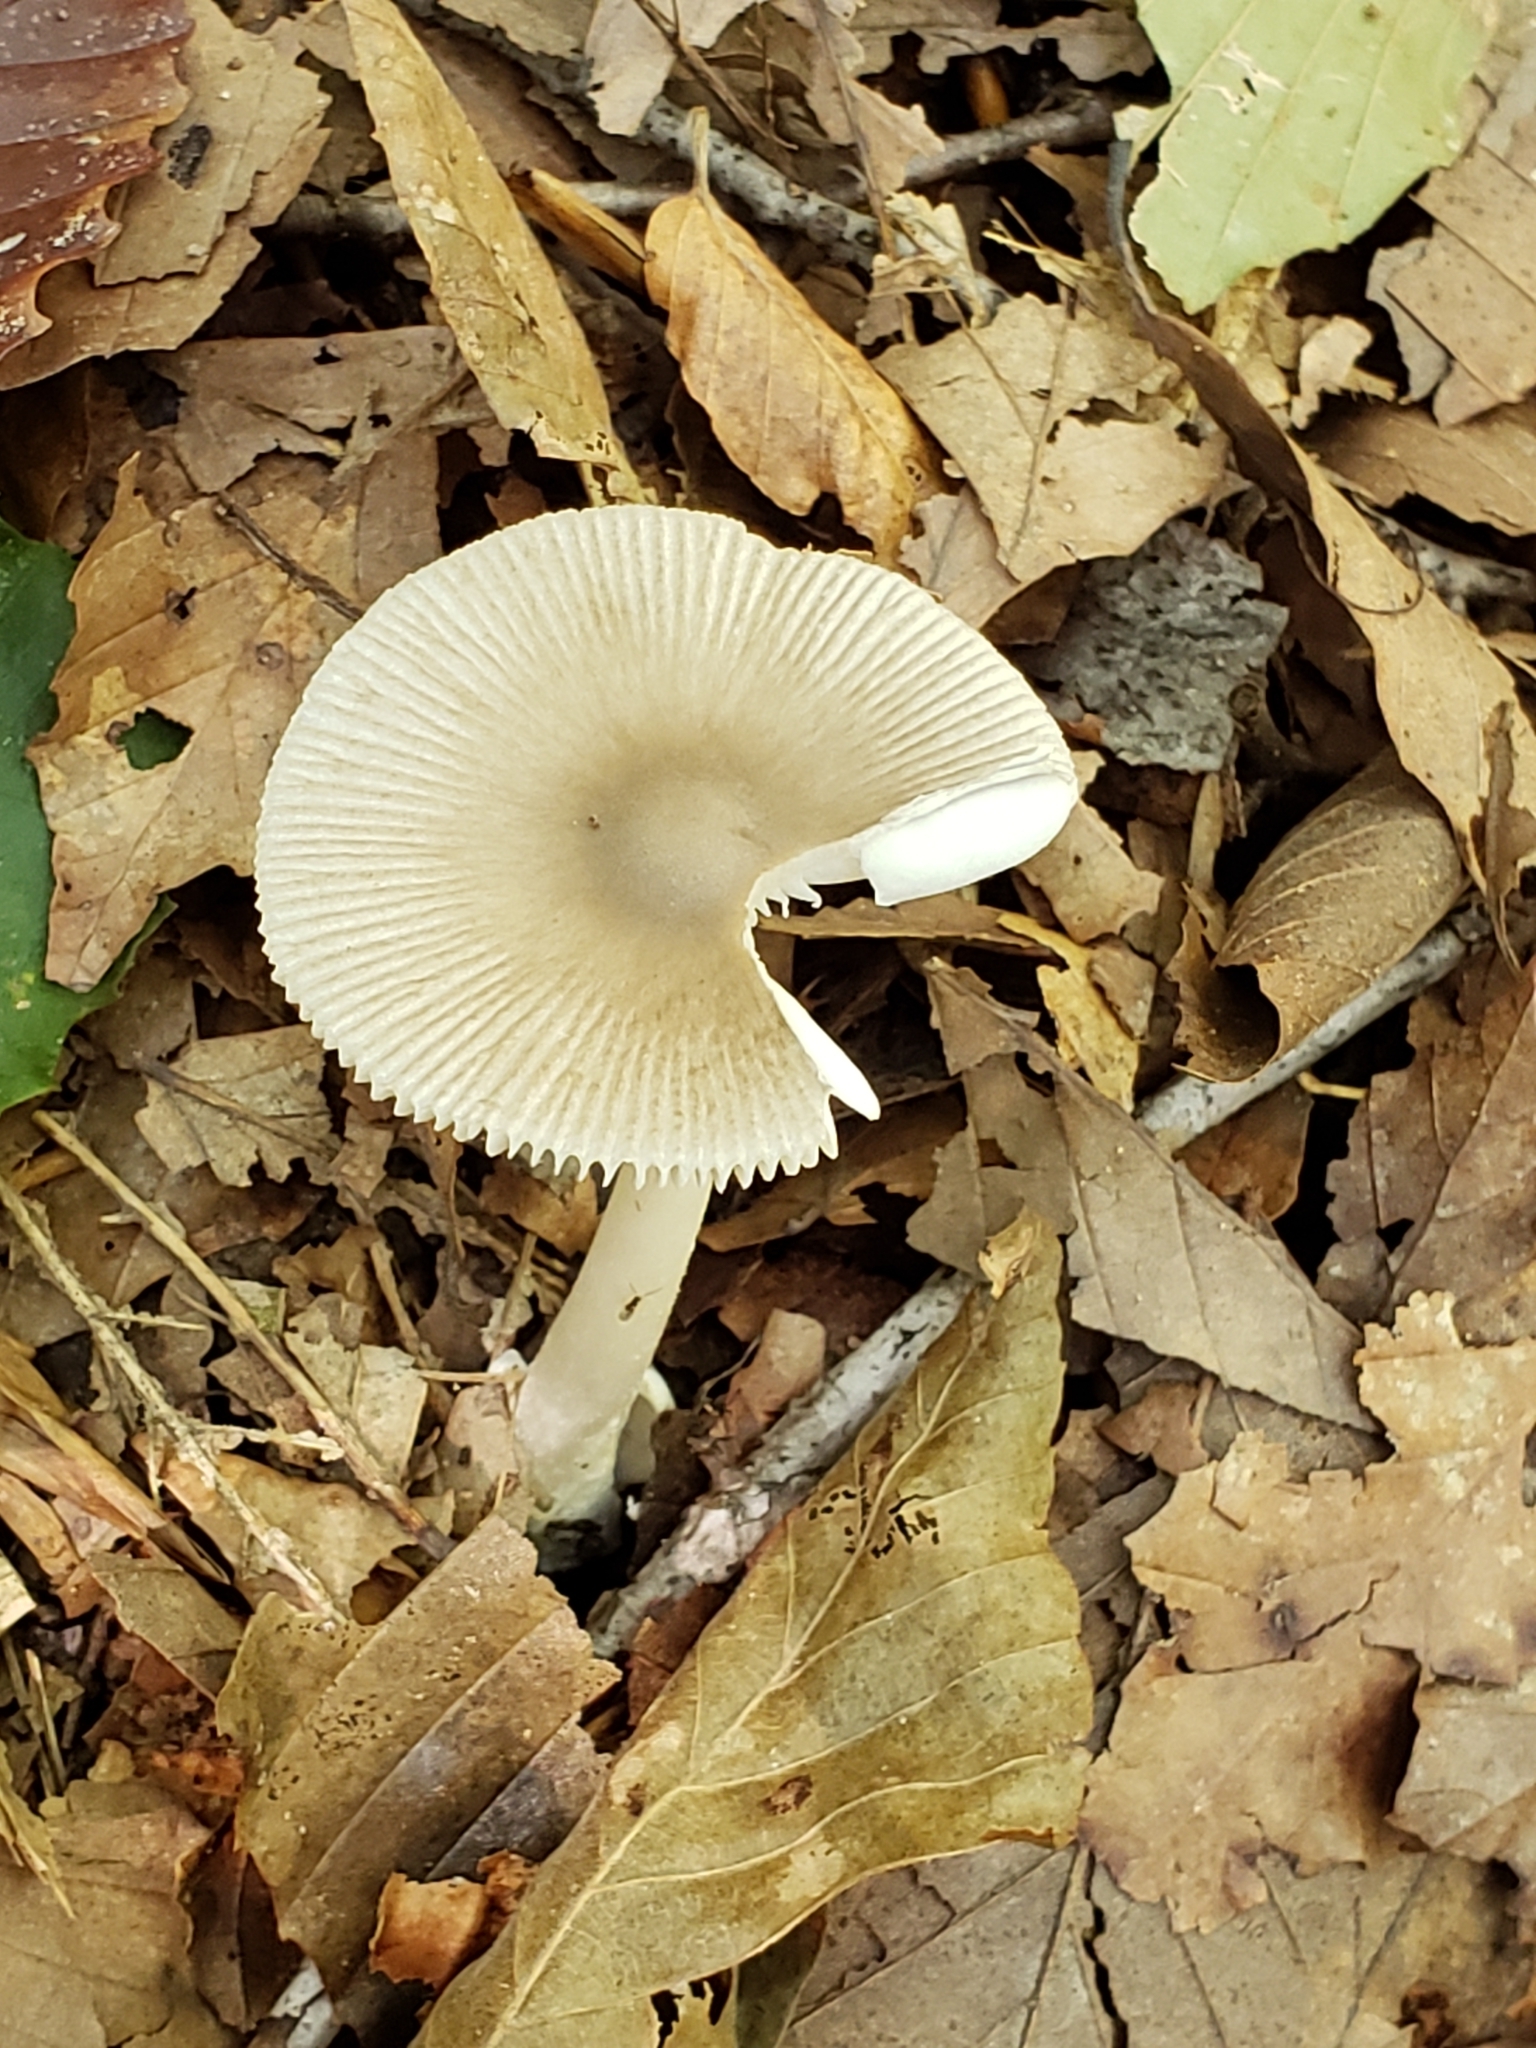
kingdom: Fungi
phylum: Basidiomycota
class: Agaricomycetes
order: Agaricales
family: Amanitaceae
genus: Amanita
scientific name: Amanita vaginata
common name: Grisette
